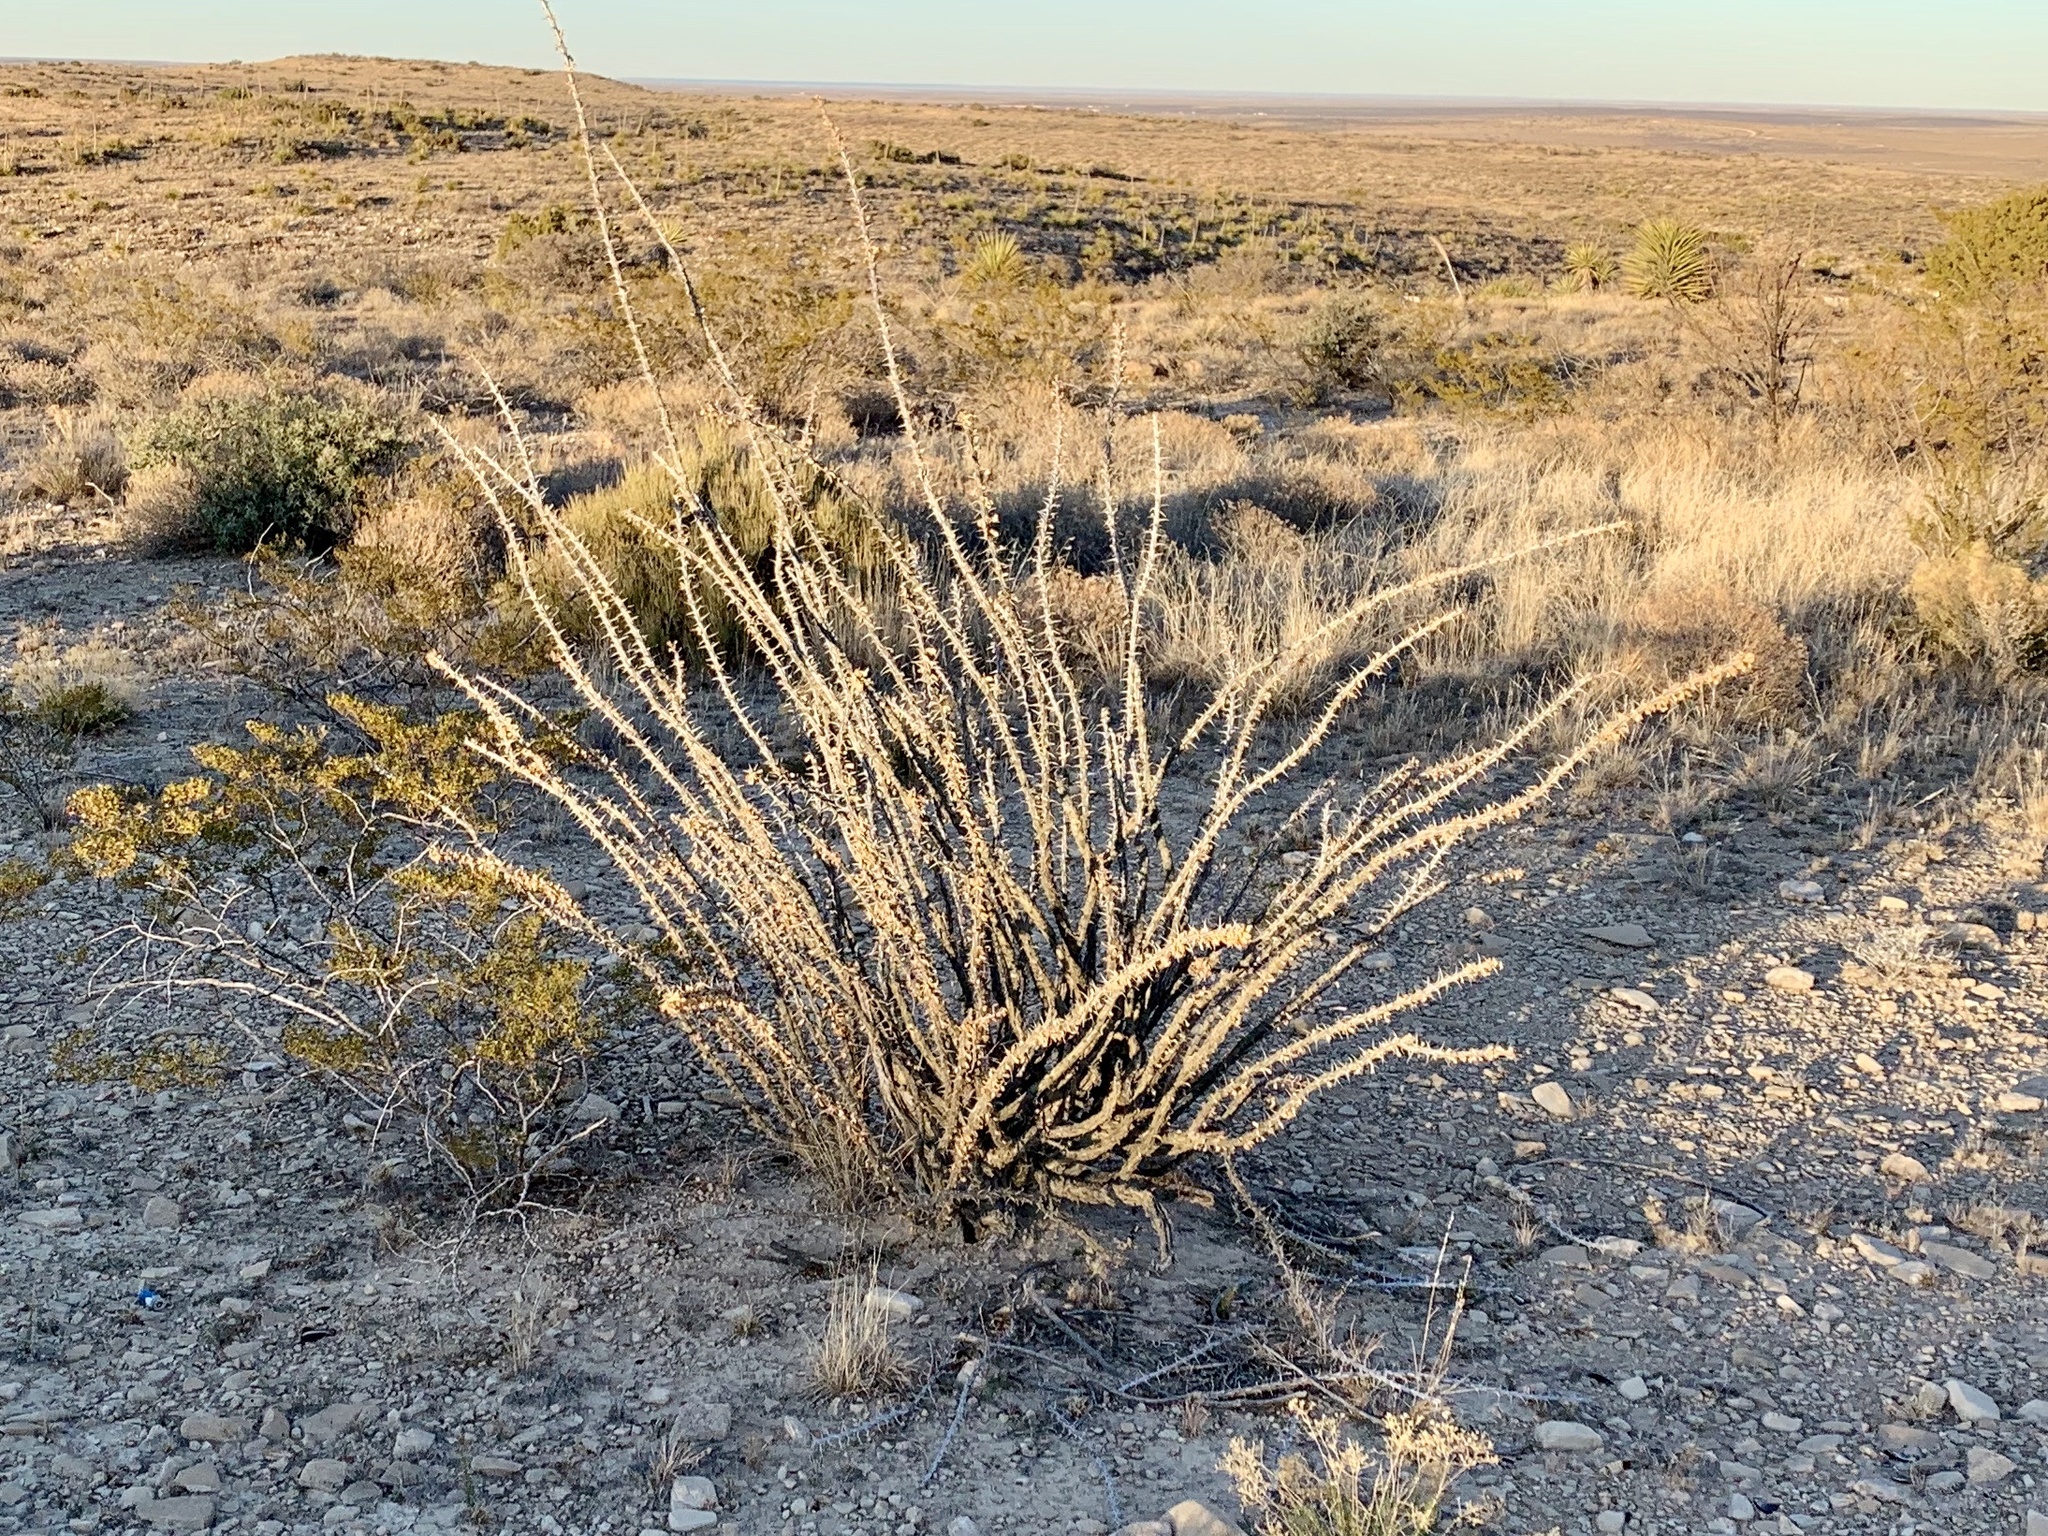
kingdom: Plantae
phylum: Tracheophyta
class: Magnoliopsida
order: Ericales
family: Fouquieriaceae
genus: Fouquieria
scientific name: Fouquieria splendens
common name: Vine-cactus
